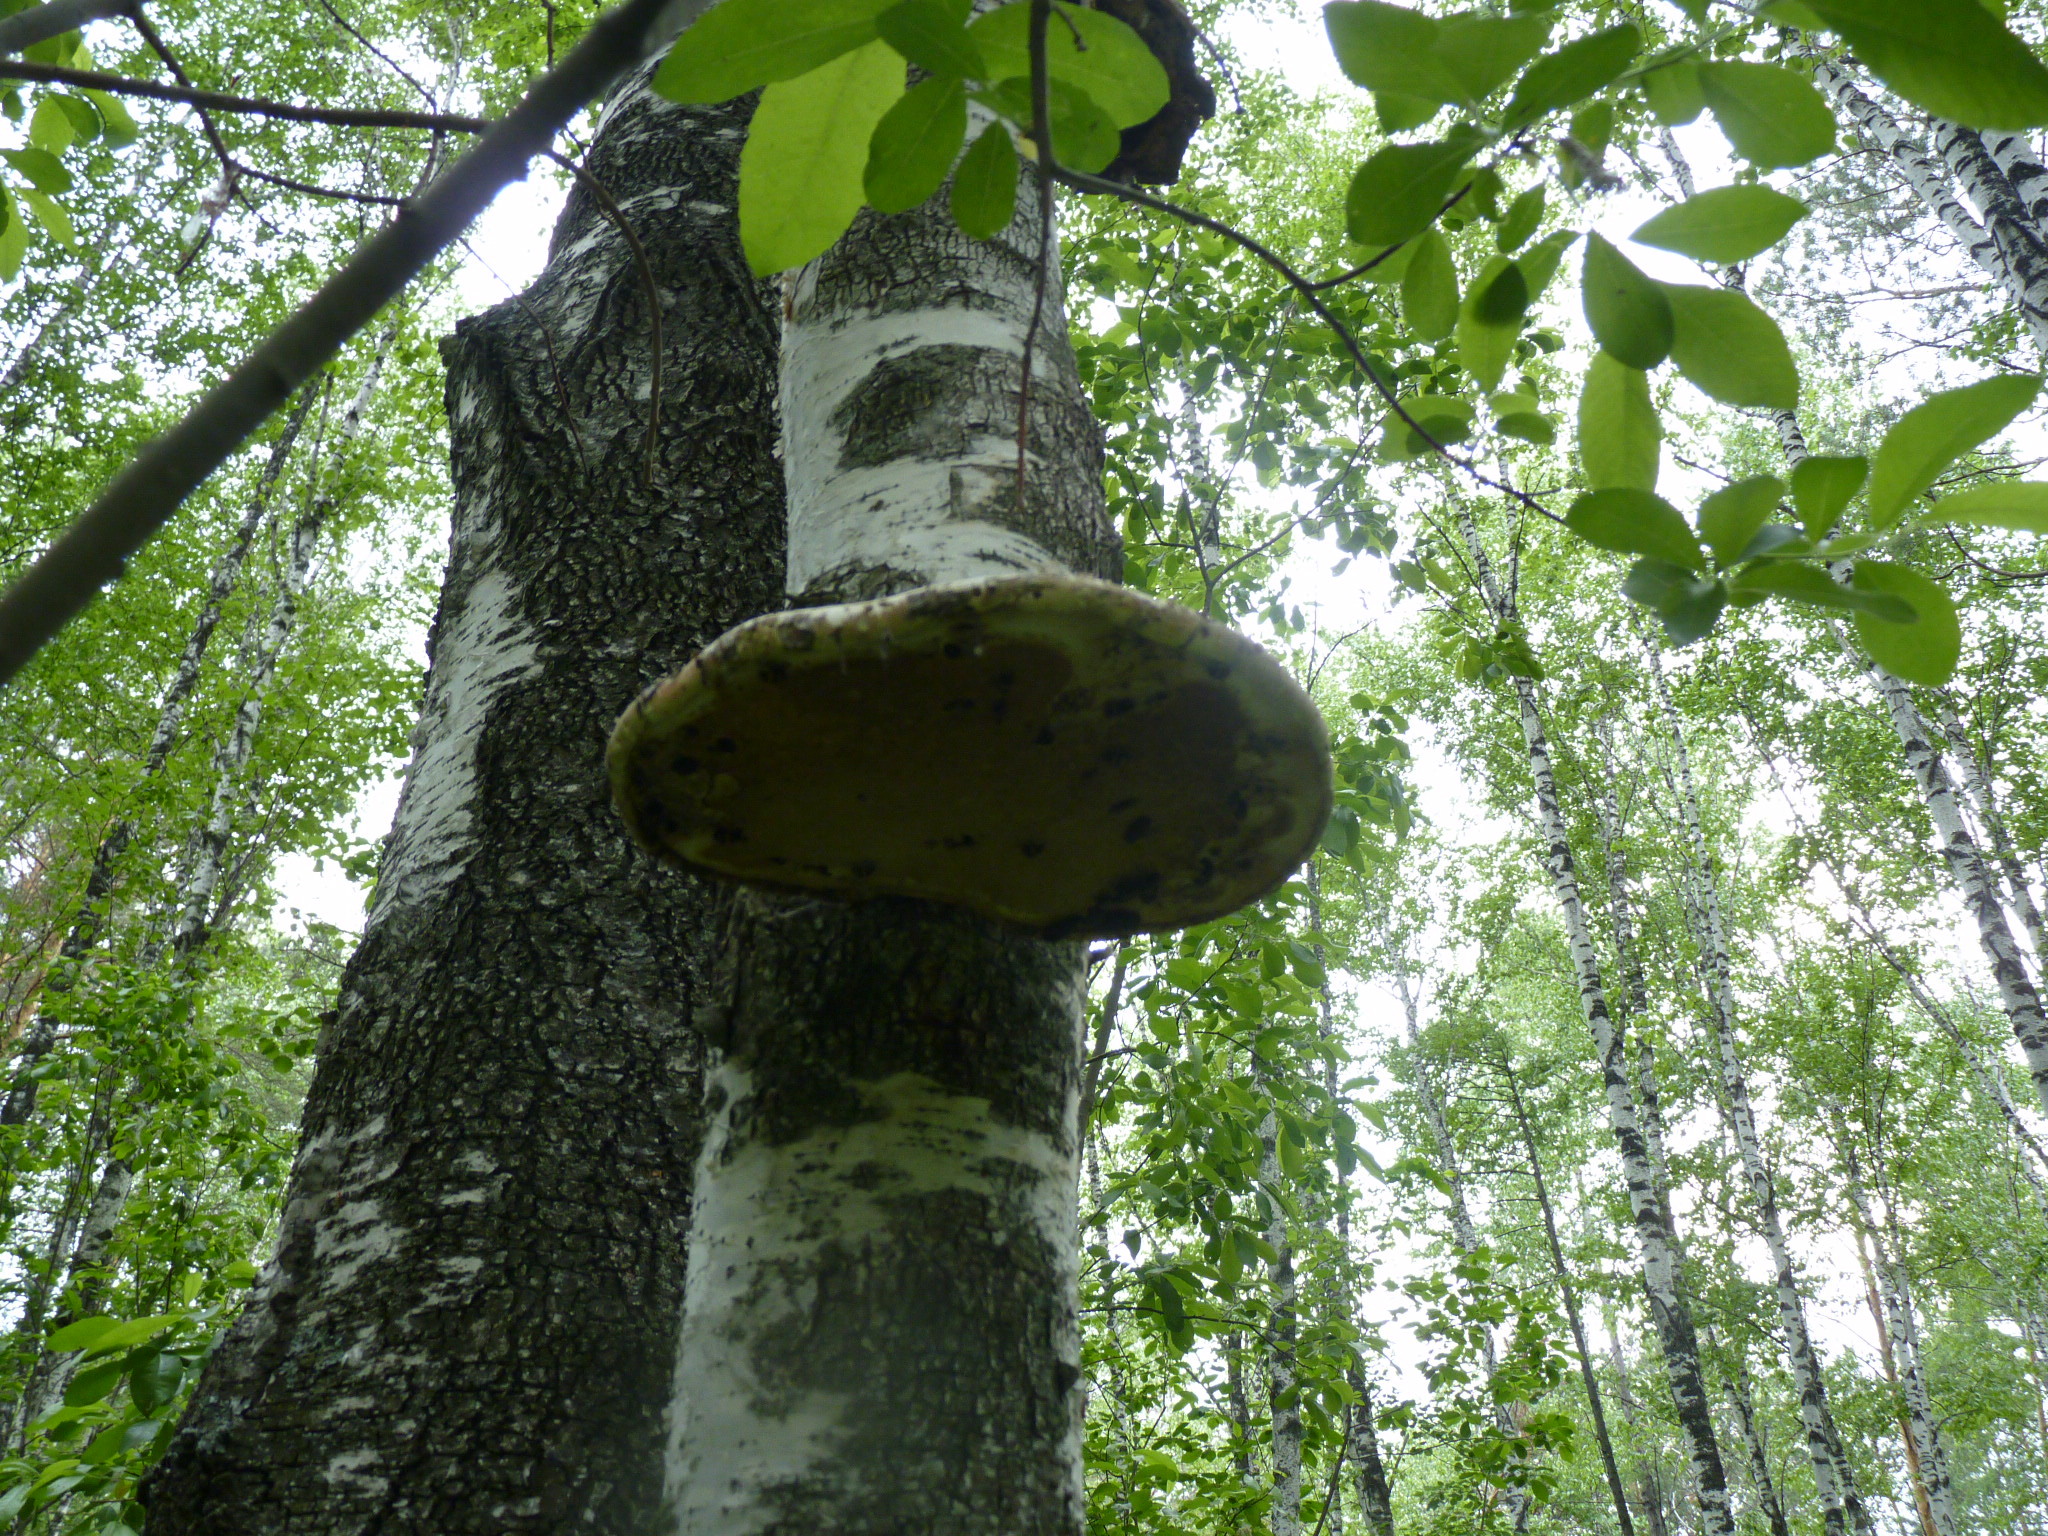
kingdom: Fungi
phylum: Basidiomycota
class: Agaricomycetes
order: Polyporales
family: Fomitopsidaceae
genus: Fomitopsis
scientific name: Fomitopsis betulina
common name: Birch polypore
